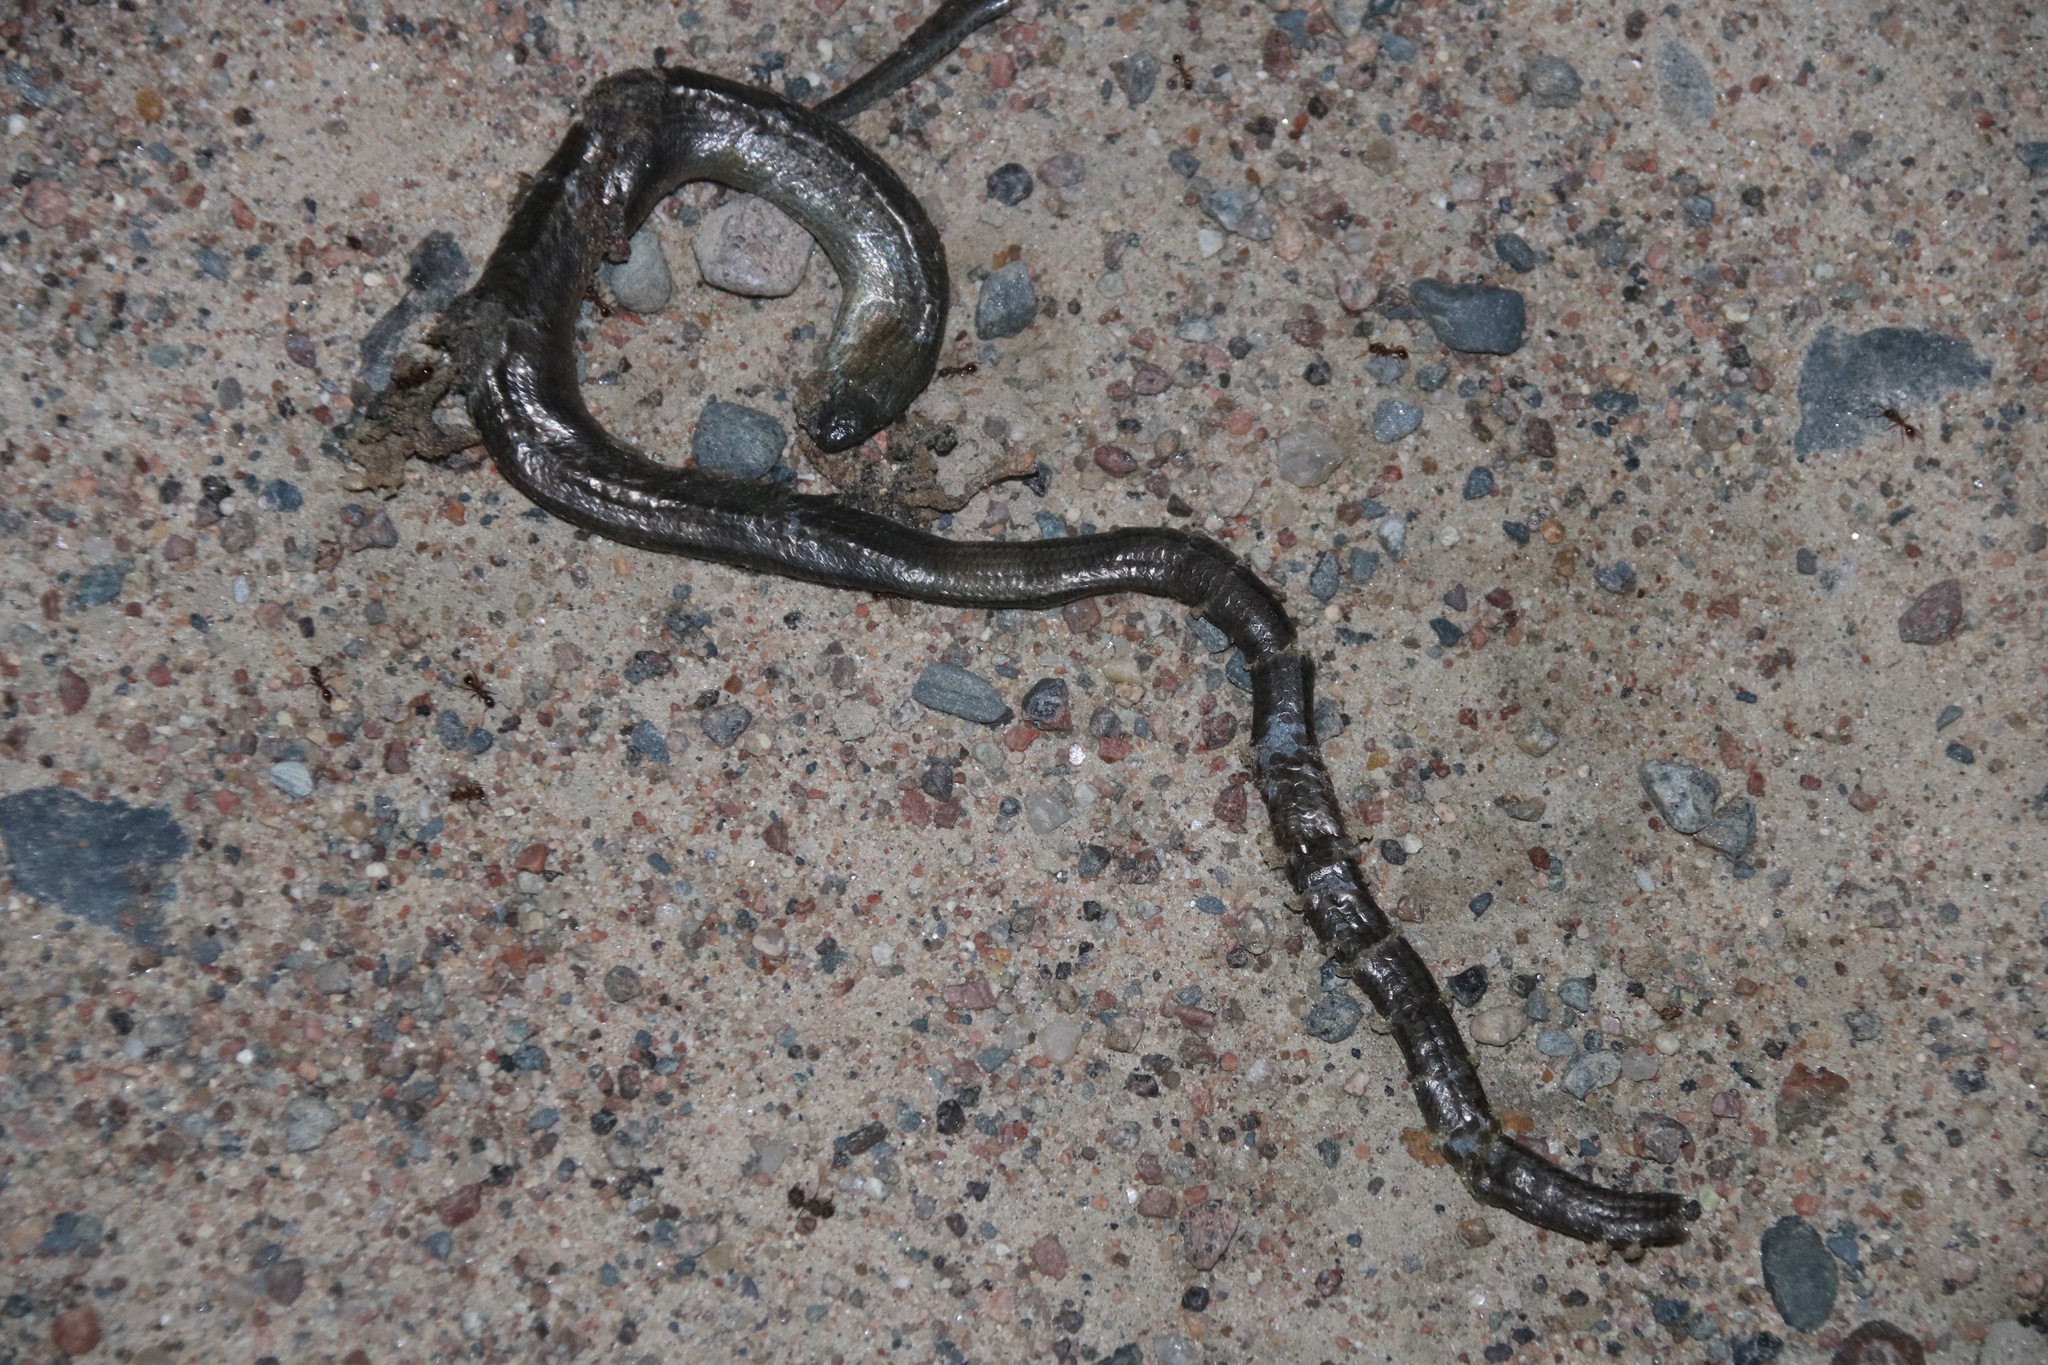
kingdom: Animalia
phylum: Chordata
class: Squamata
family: Anguidae
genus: Anguis
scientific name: Anguis colchica
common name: Slow worm
